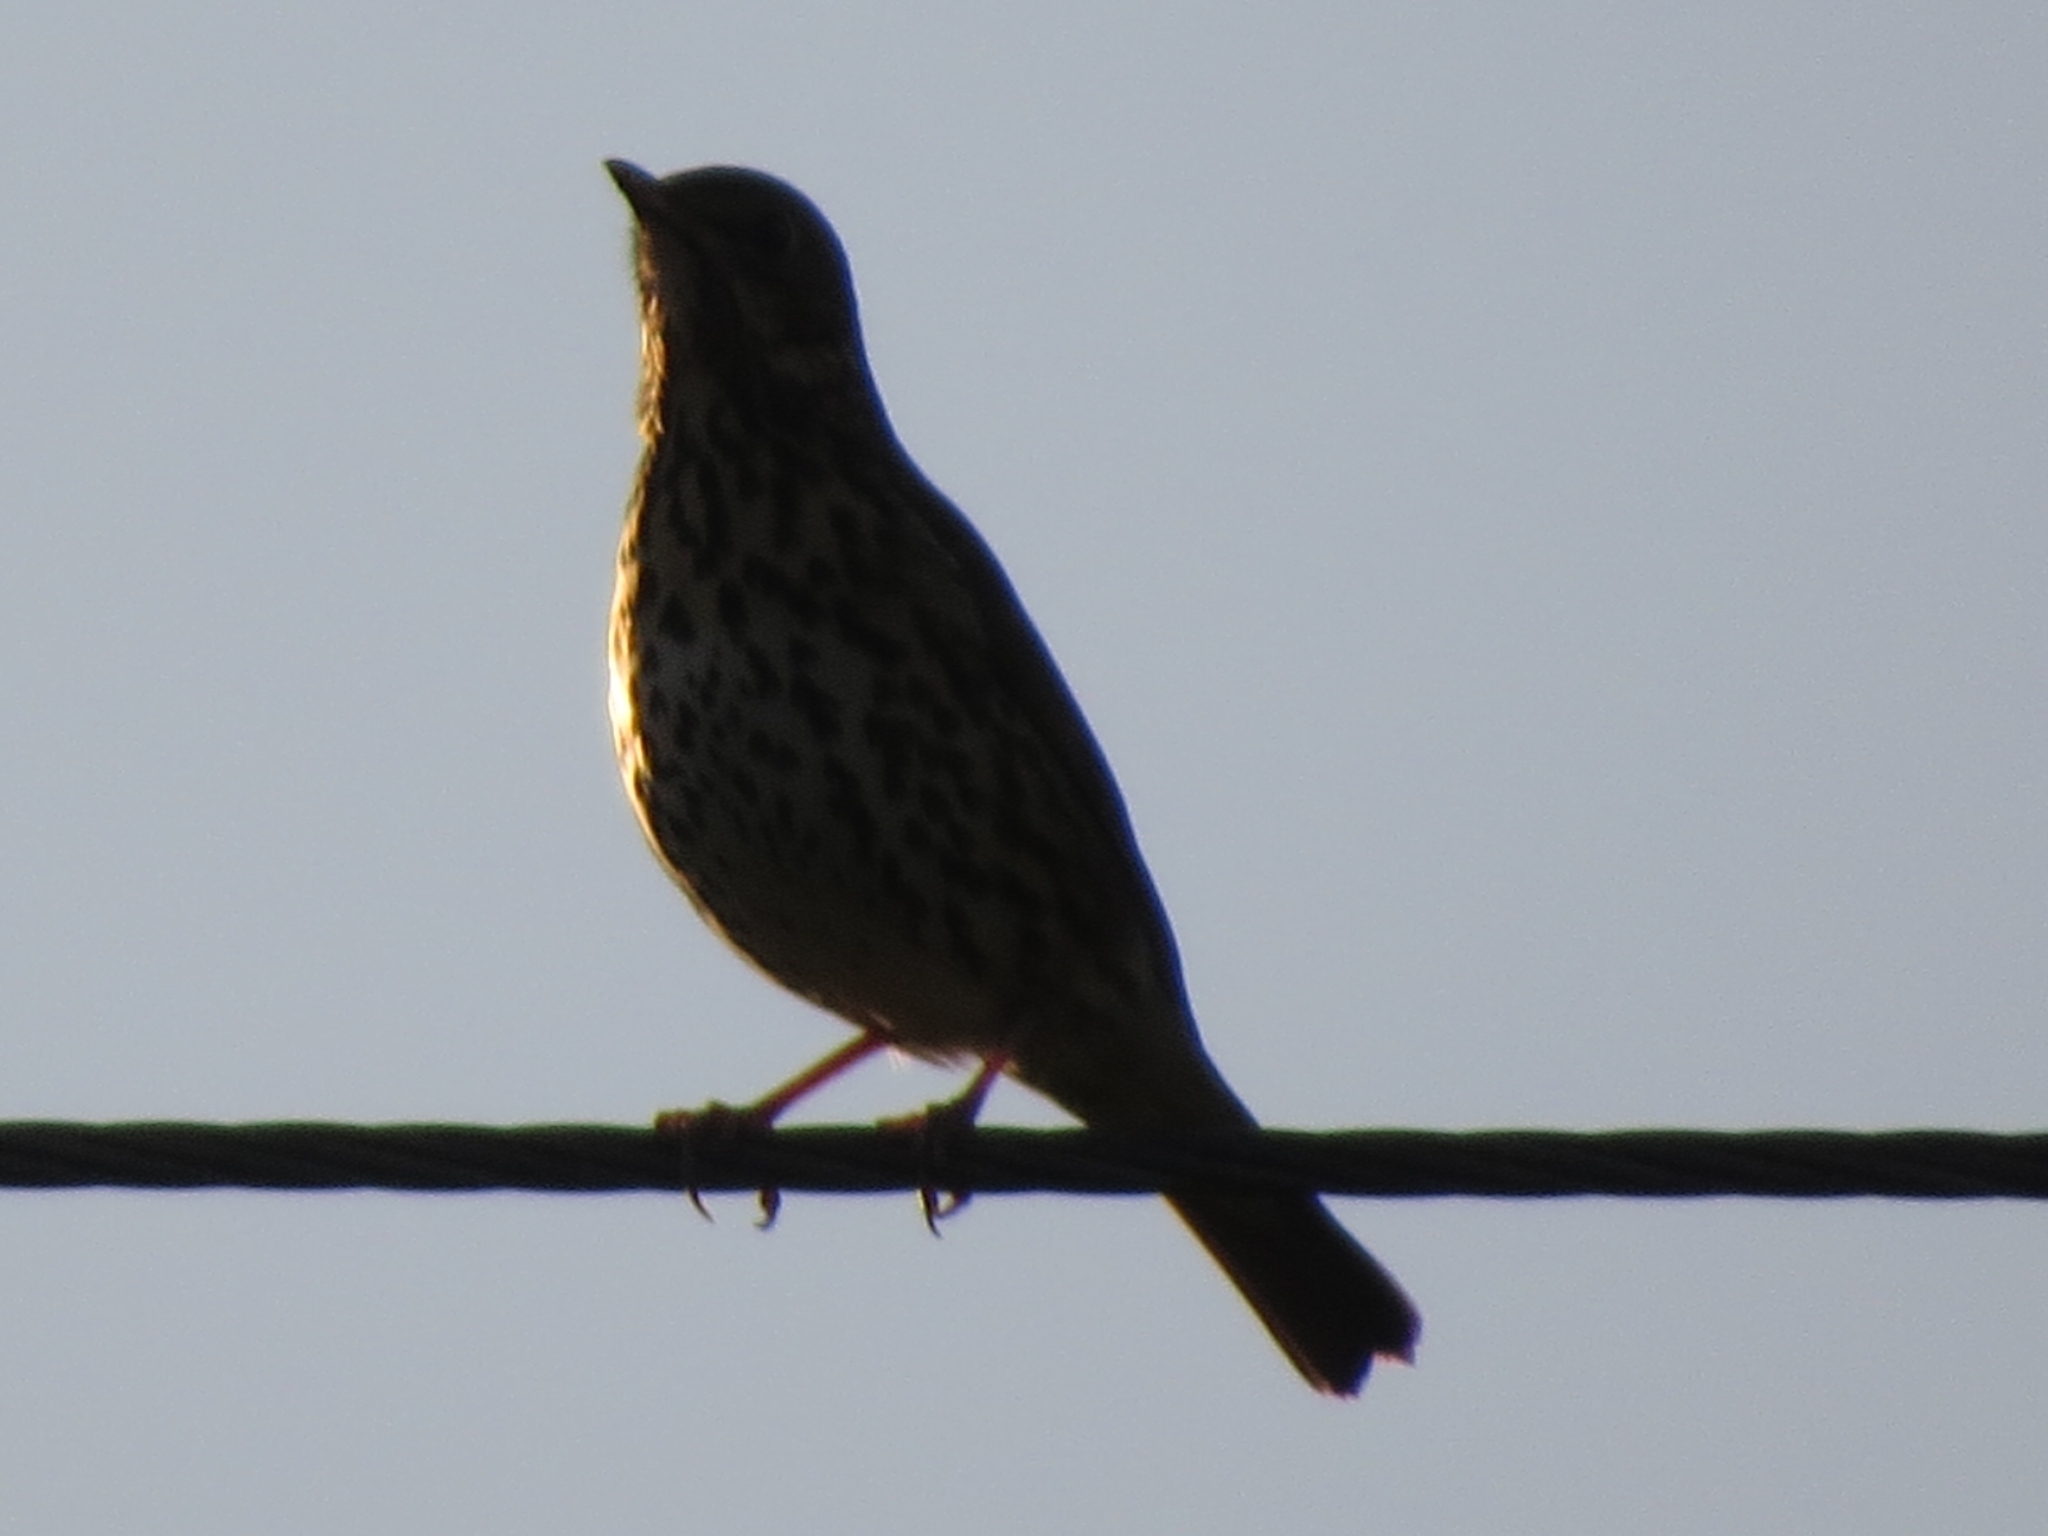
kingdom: Animalia
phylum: Chordata
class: Aves
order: Passeriformes
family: Turdidae
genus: Turdus
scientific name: Turdus philomelos
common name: Song thrush
